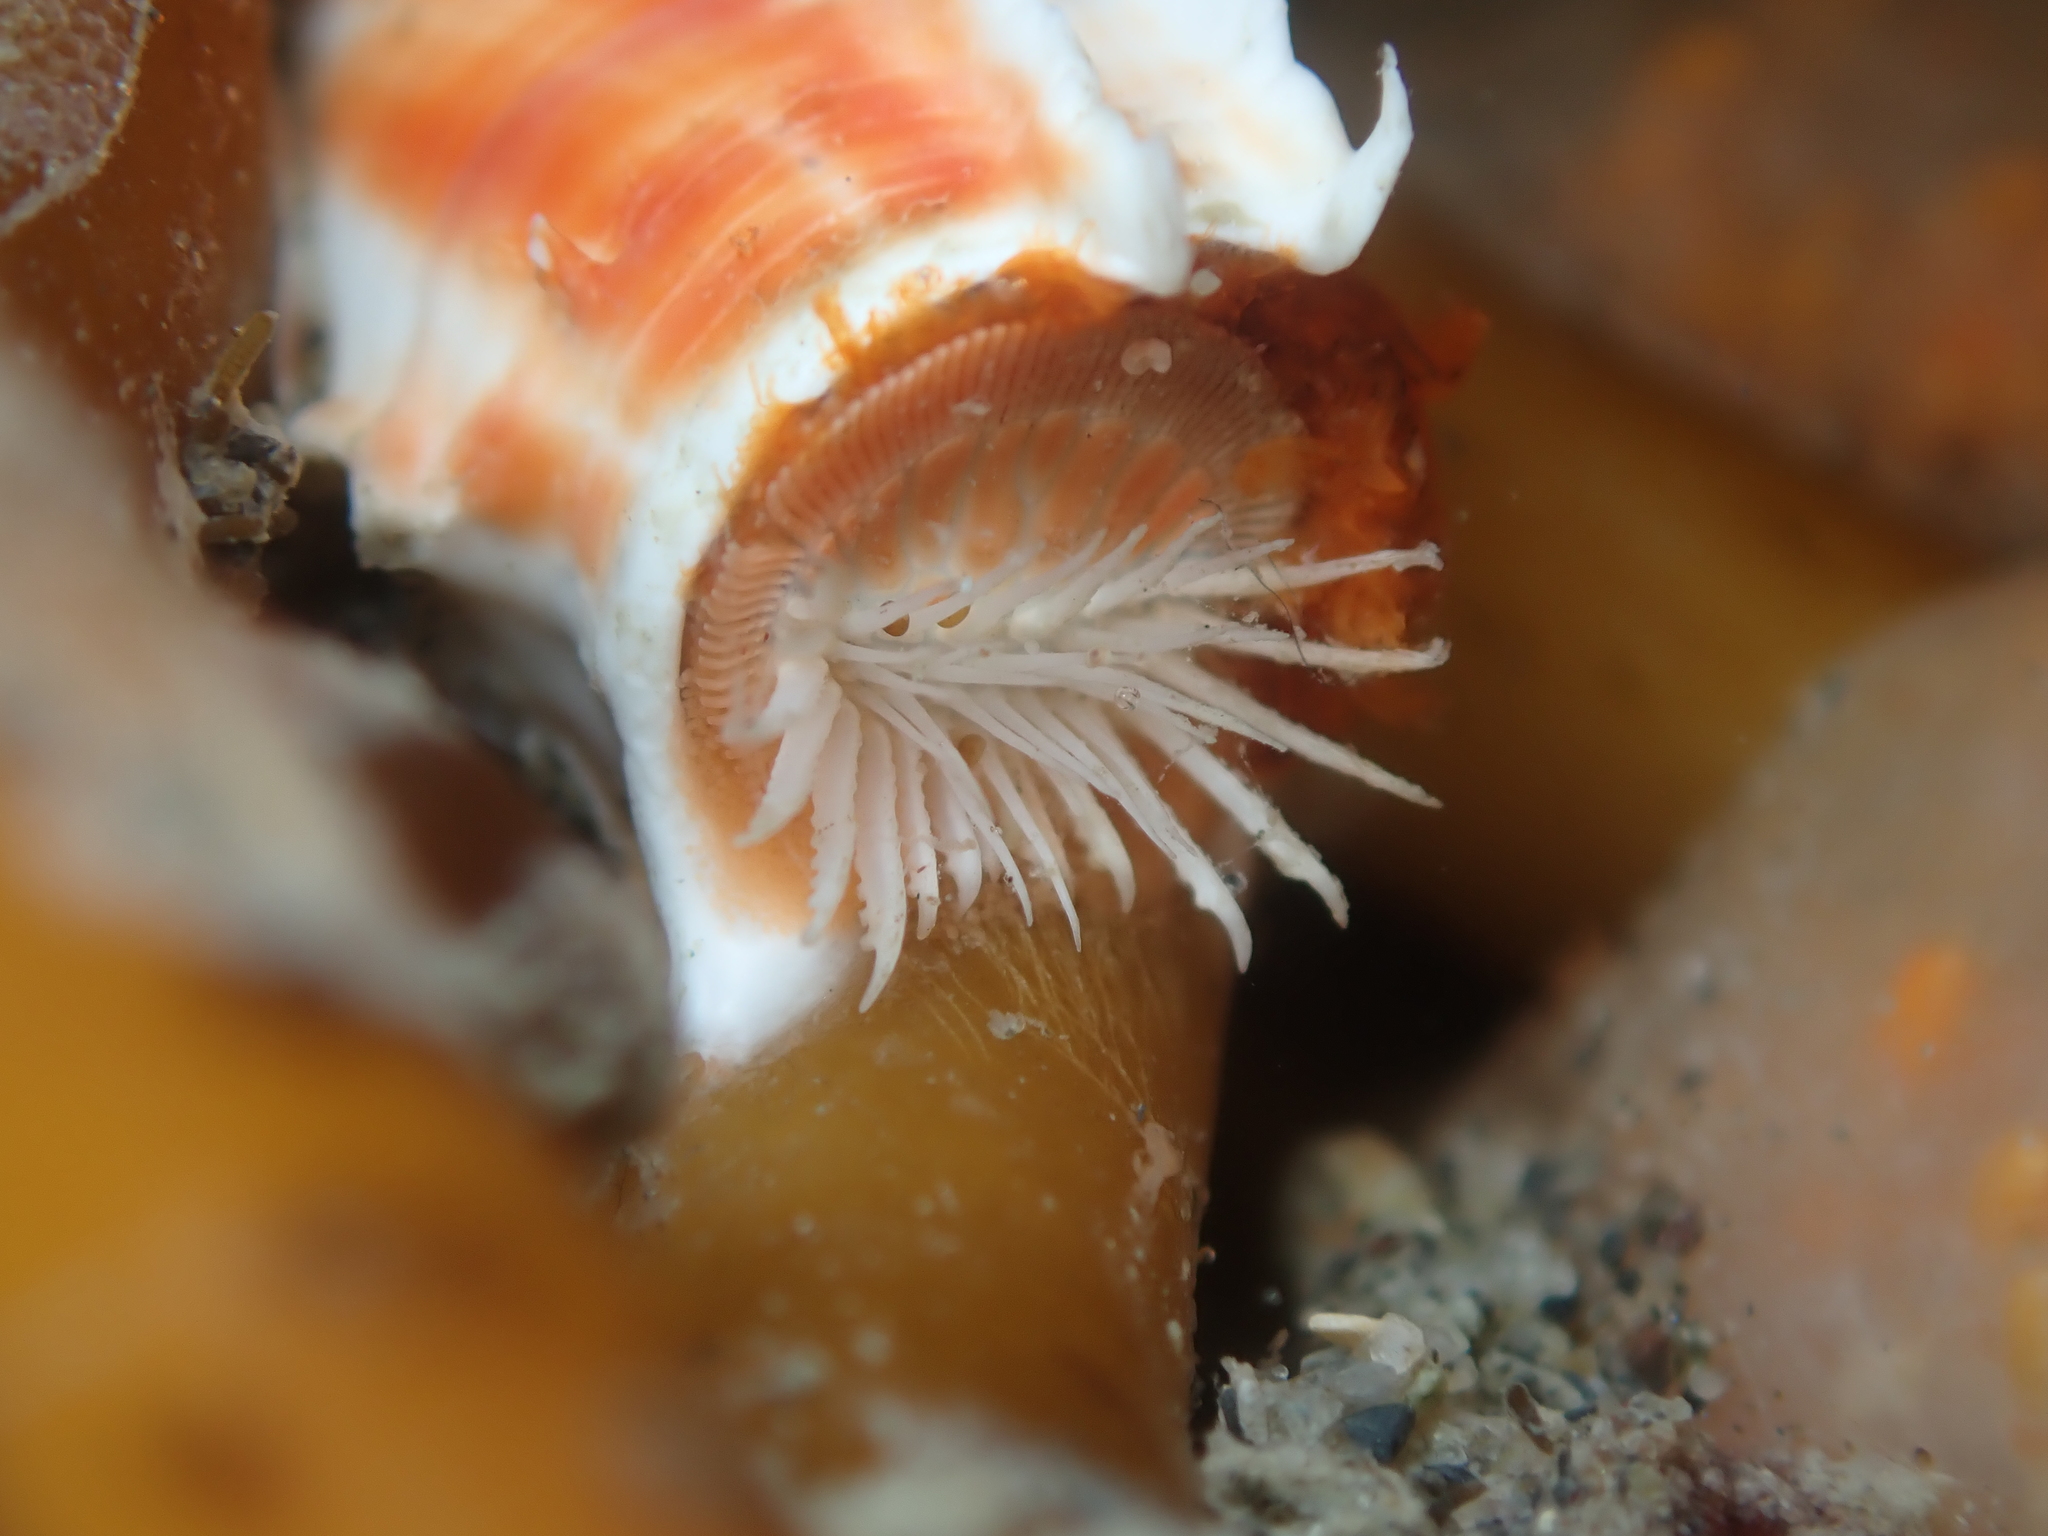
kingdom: Animalia
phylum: Annelida
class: Polychaeta
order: Sabellida
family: Serpulidae
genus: Galeolaria
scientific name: Galeolaria hystrix
